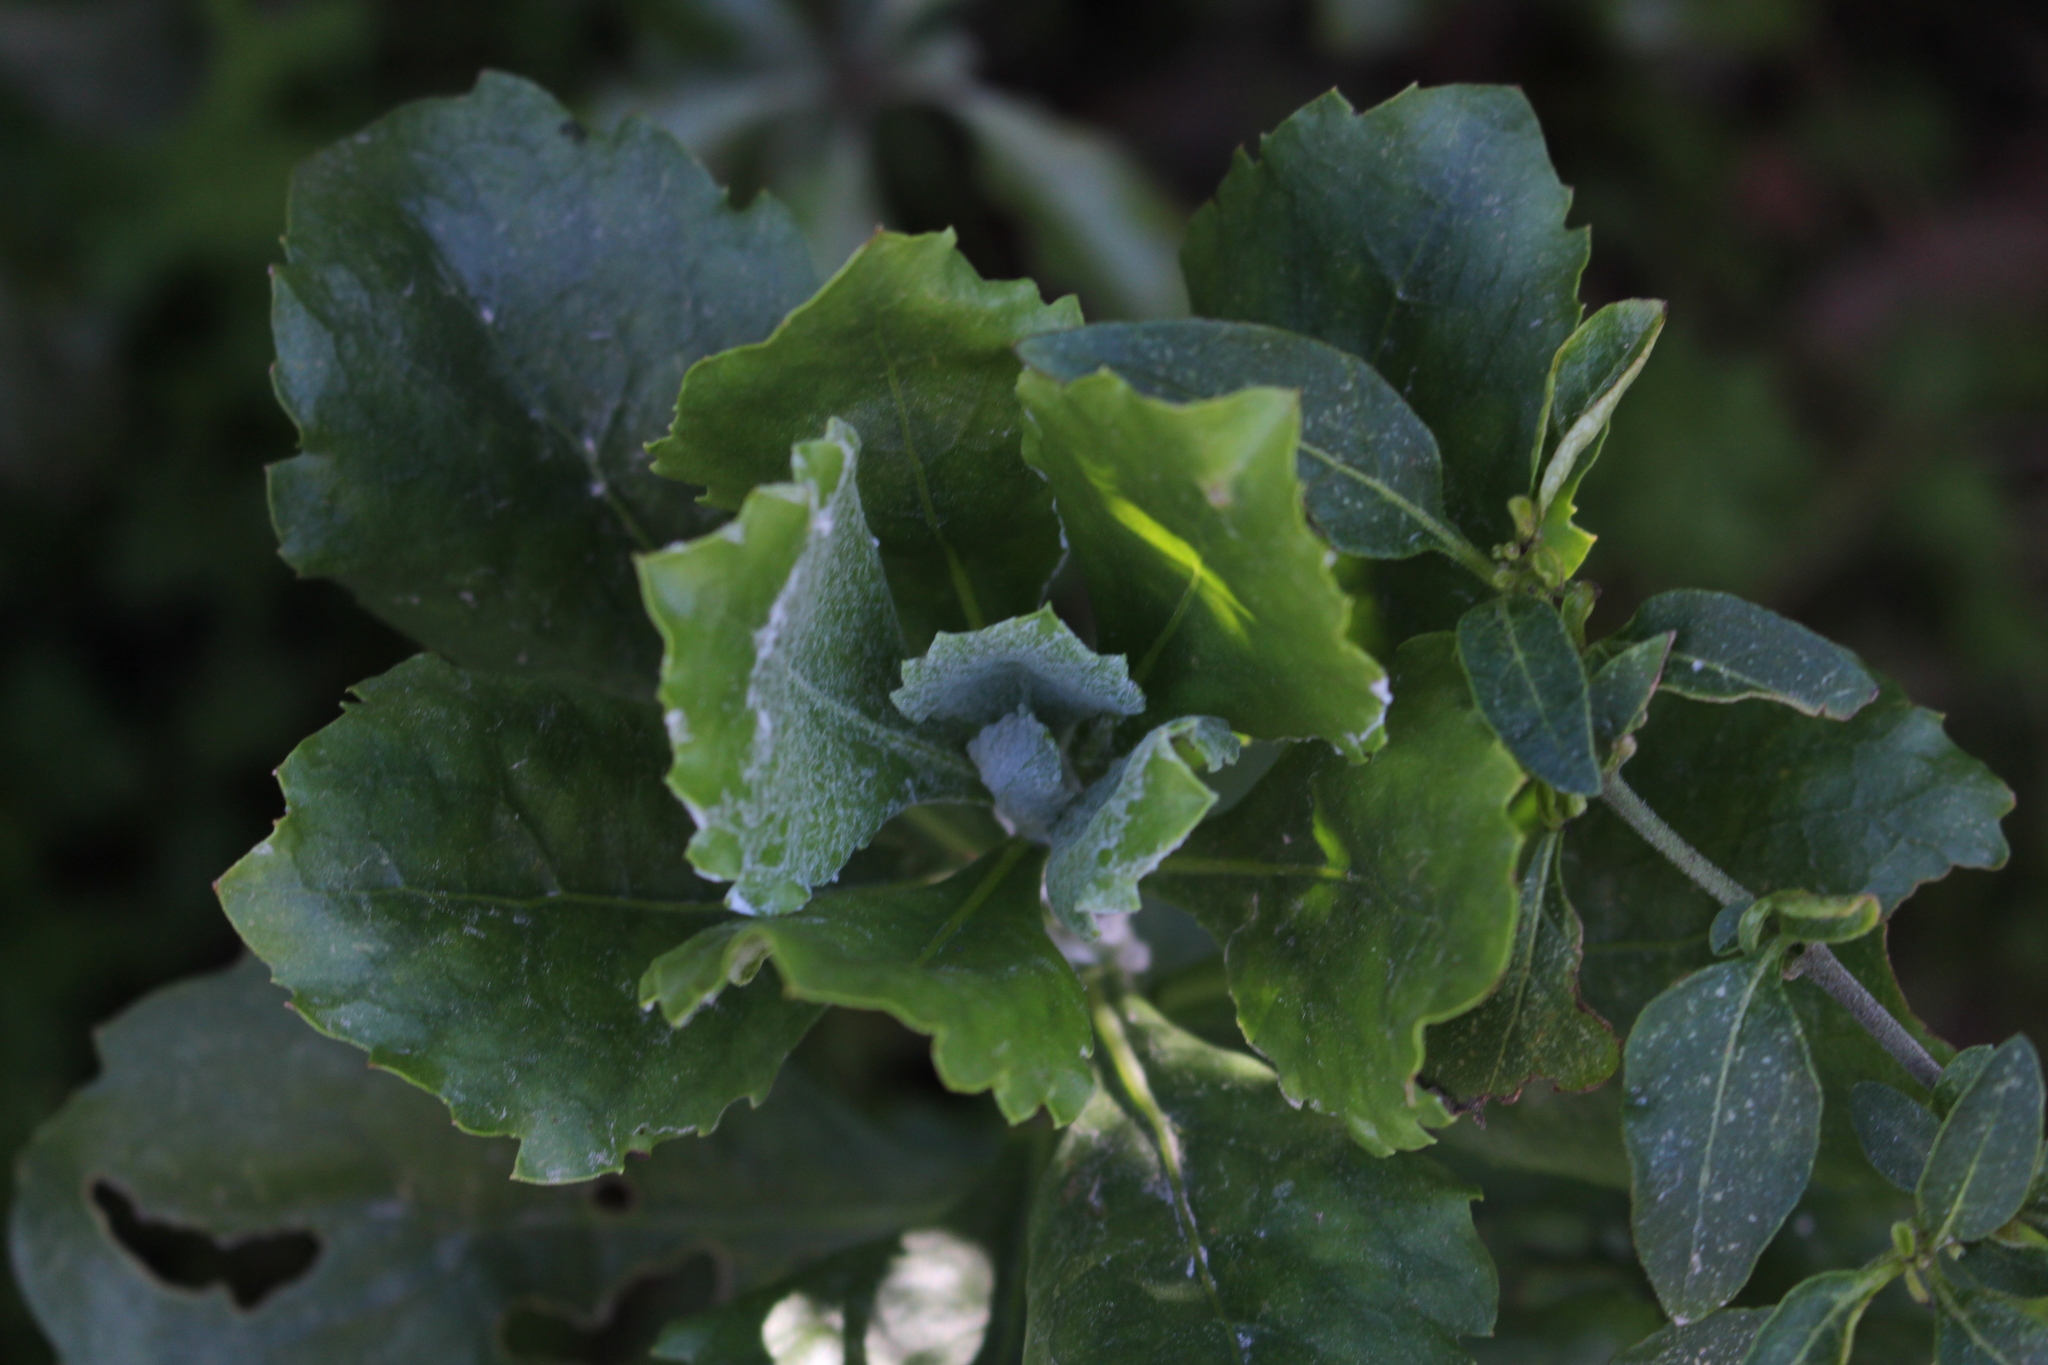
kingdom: Plantae
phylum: Tracheophyta
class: Magnoliopsida
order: Asterales
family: Asteraceae
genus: Osteospermum
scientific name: Osteospermum moniliferum
